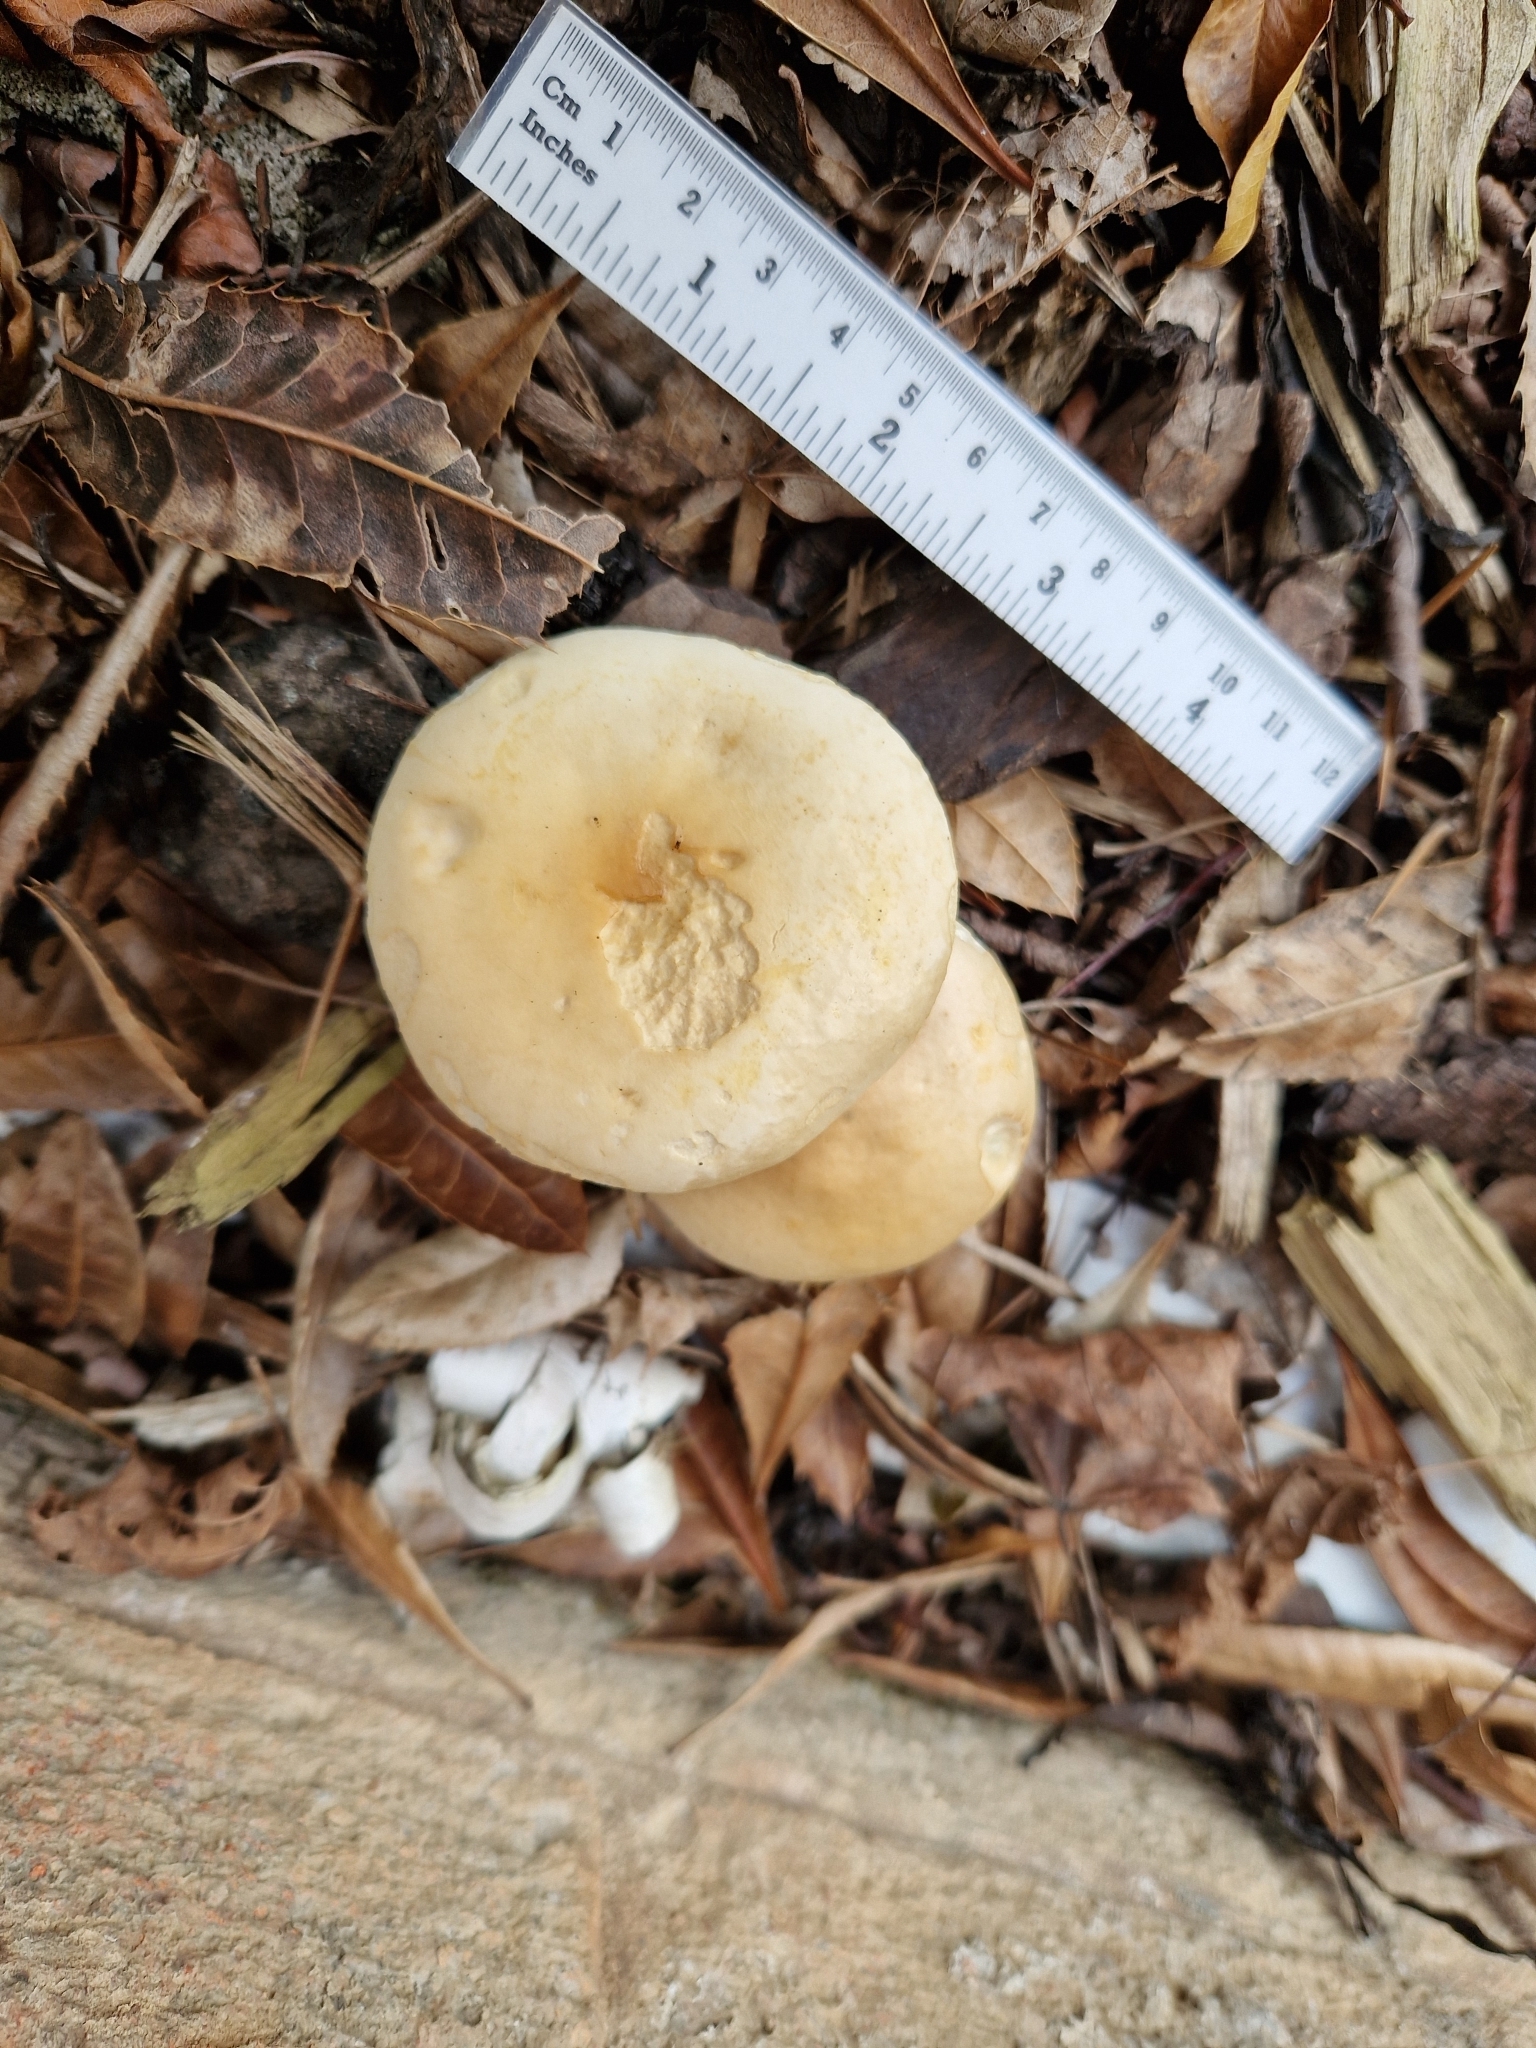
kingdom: Fungi
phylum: Basidiomycota
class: Agaricomycetes
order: Agaricales
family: Strophariaceae
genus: Agrocybe
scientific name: Agrocybe praecox
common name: Spring fieldcap
